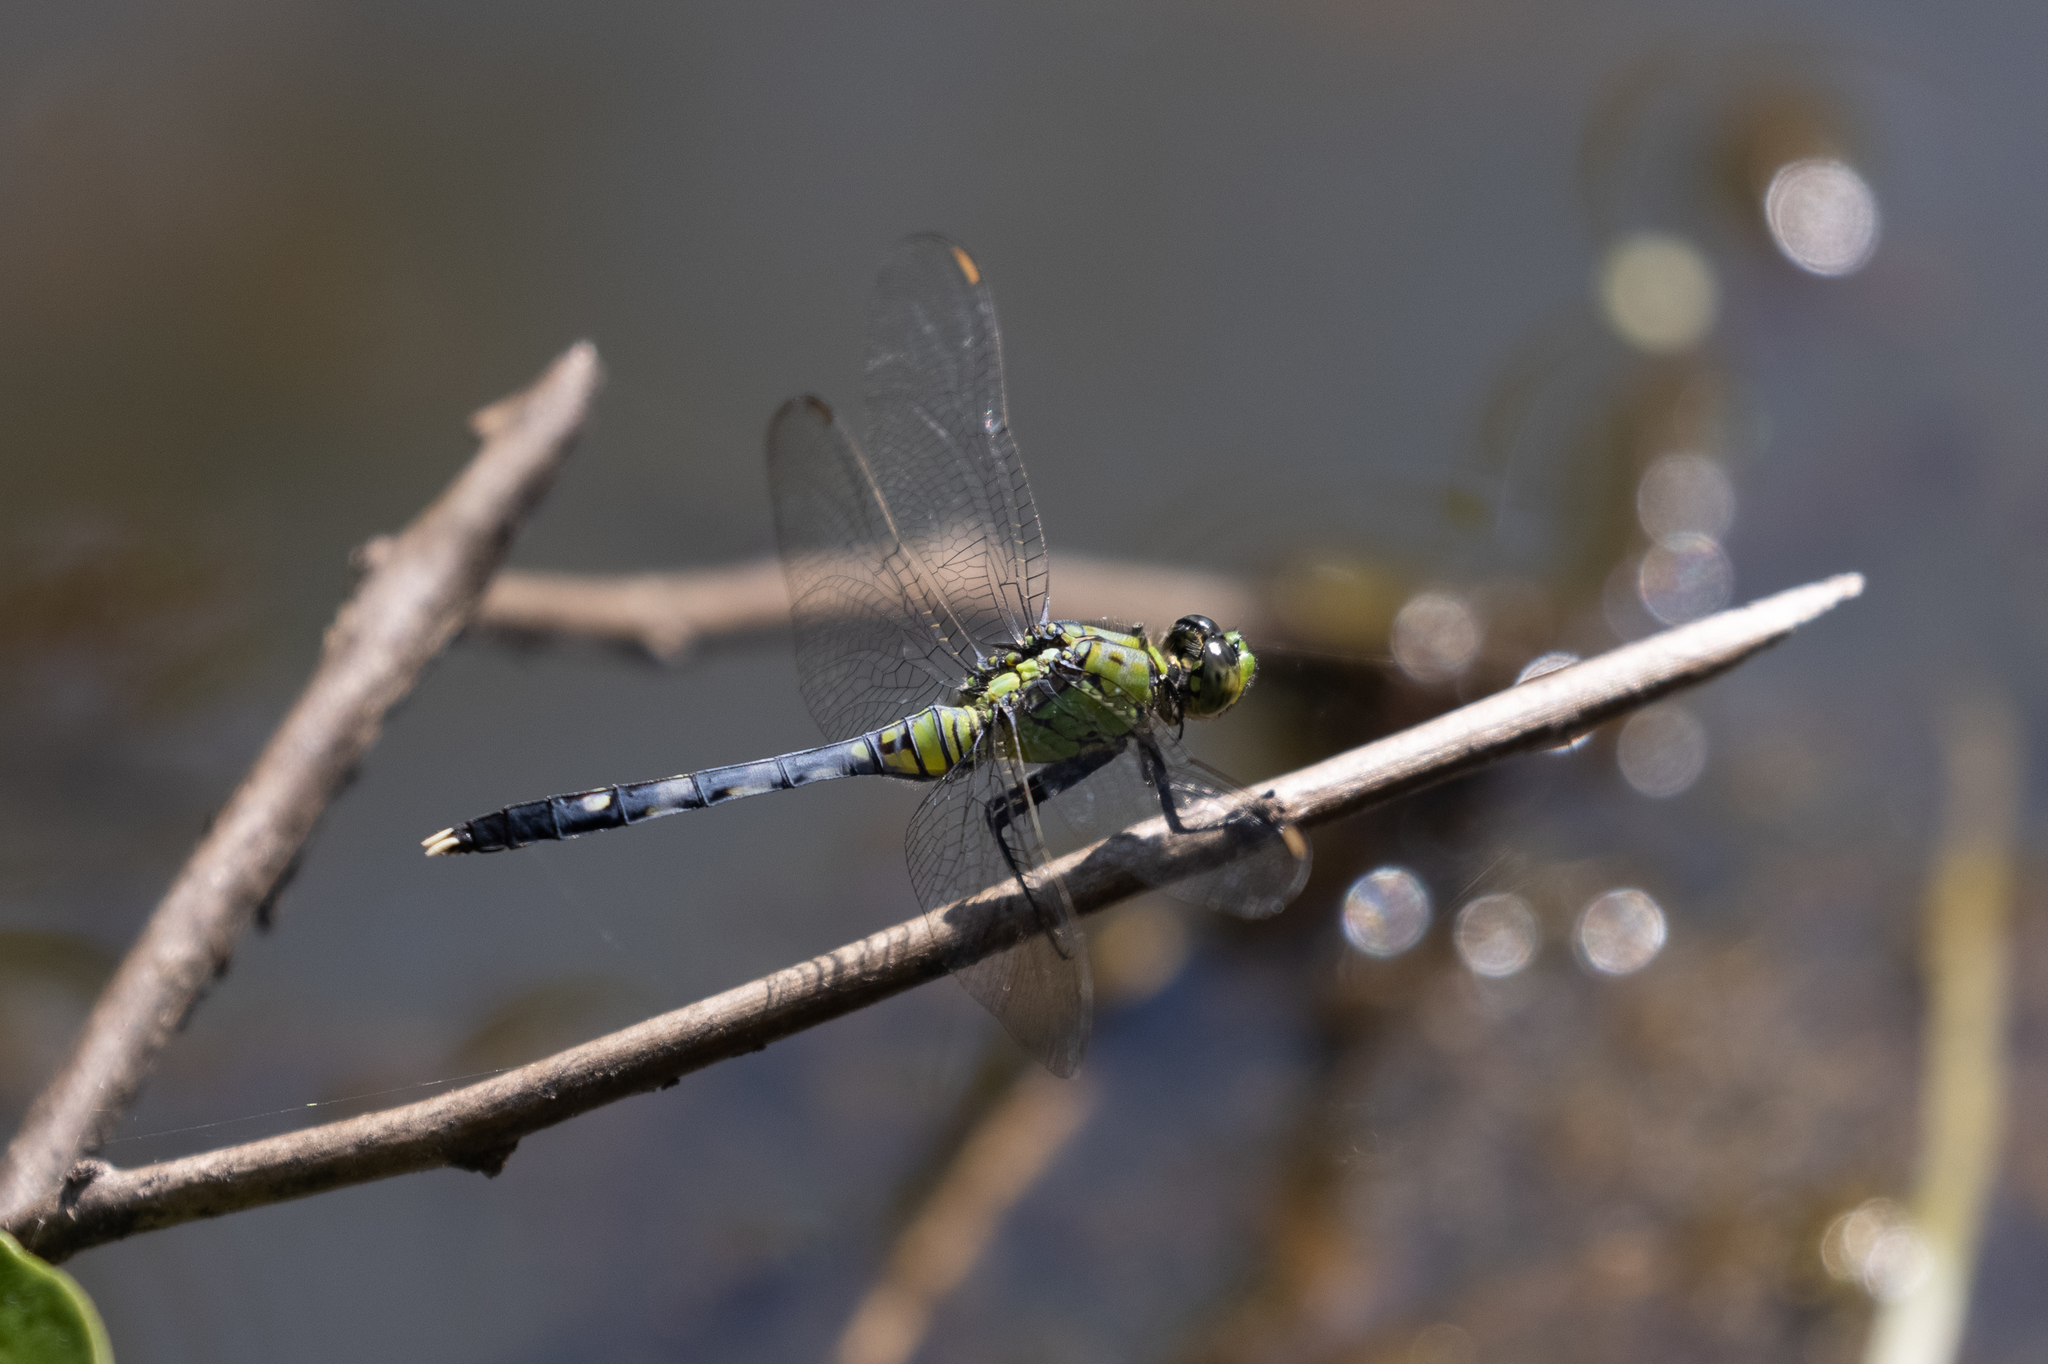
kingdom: Animalia
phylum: Arthropoda
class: Insecta
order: Odonata
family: Libellulidae
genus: Erythemis
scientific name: Erythemis simplicicollis
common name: Eastern pondhawk
